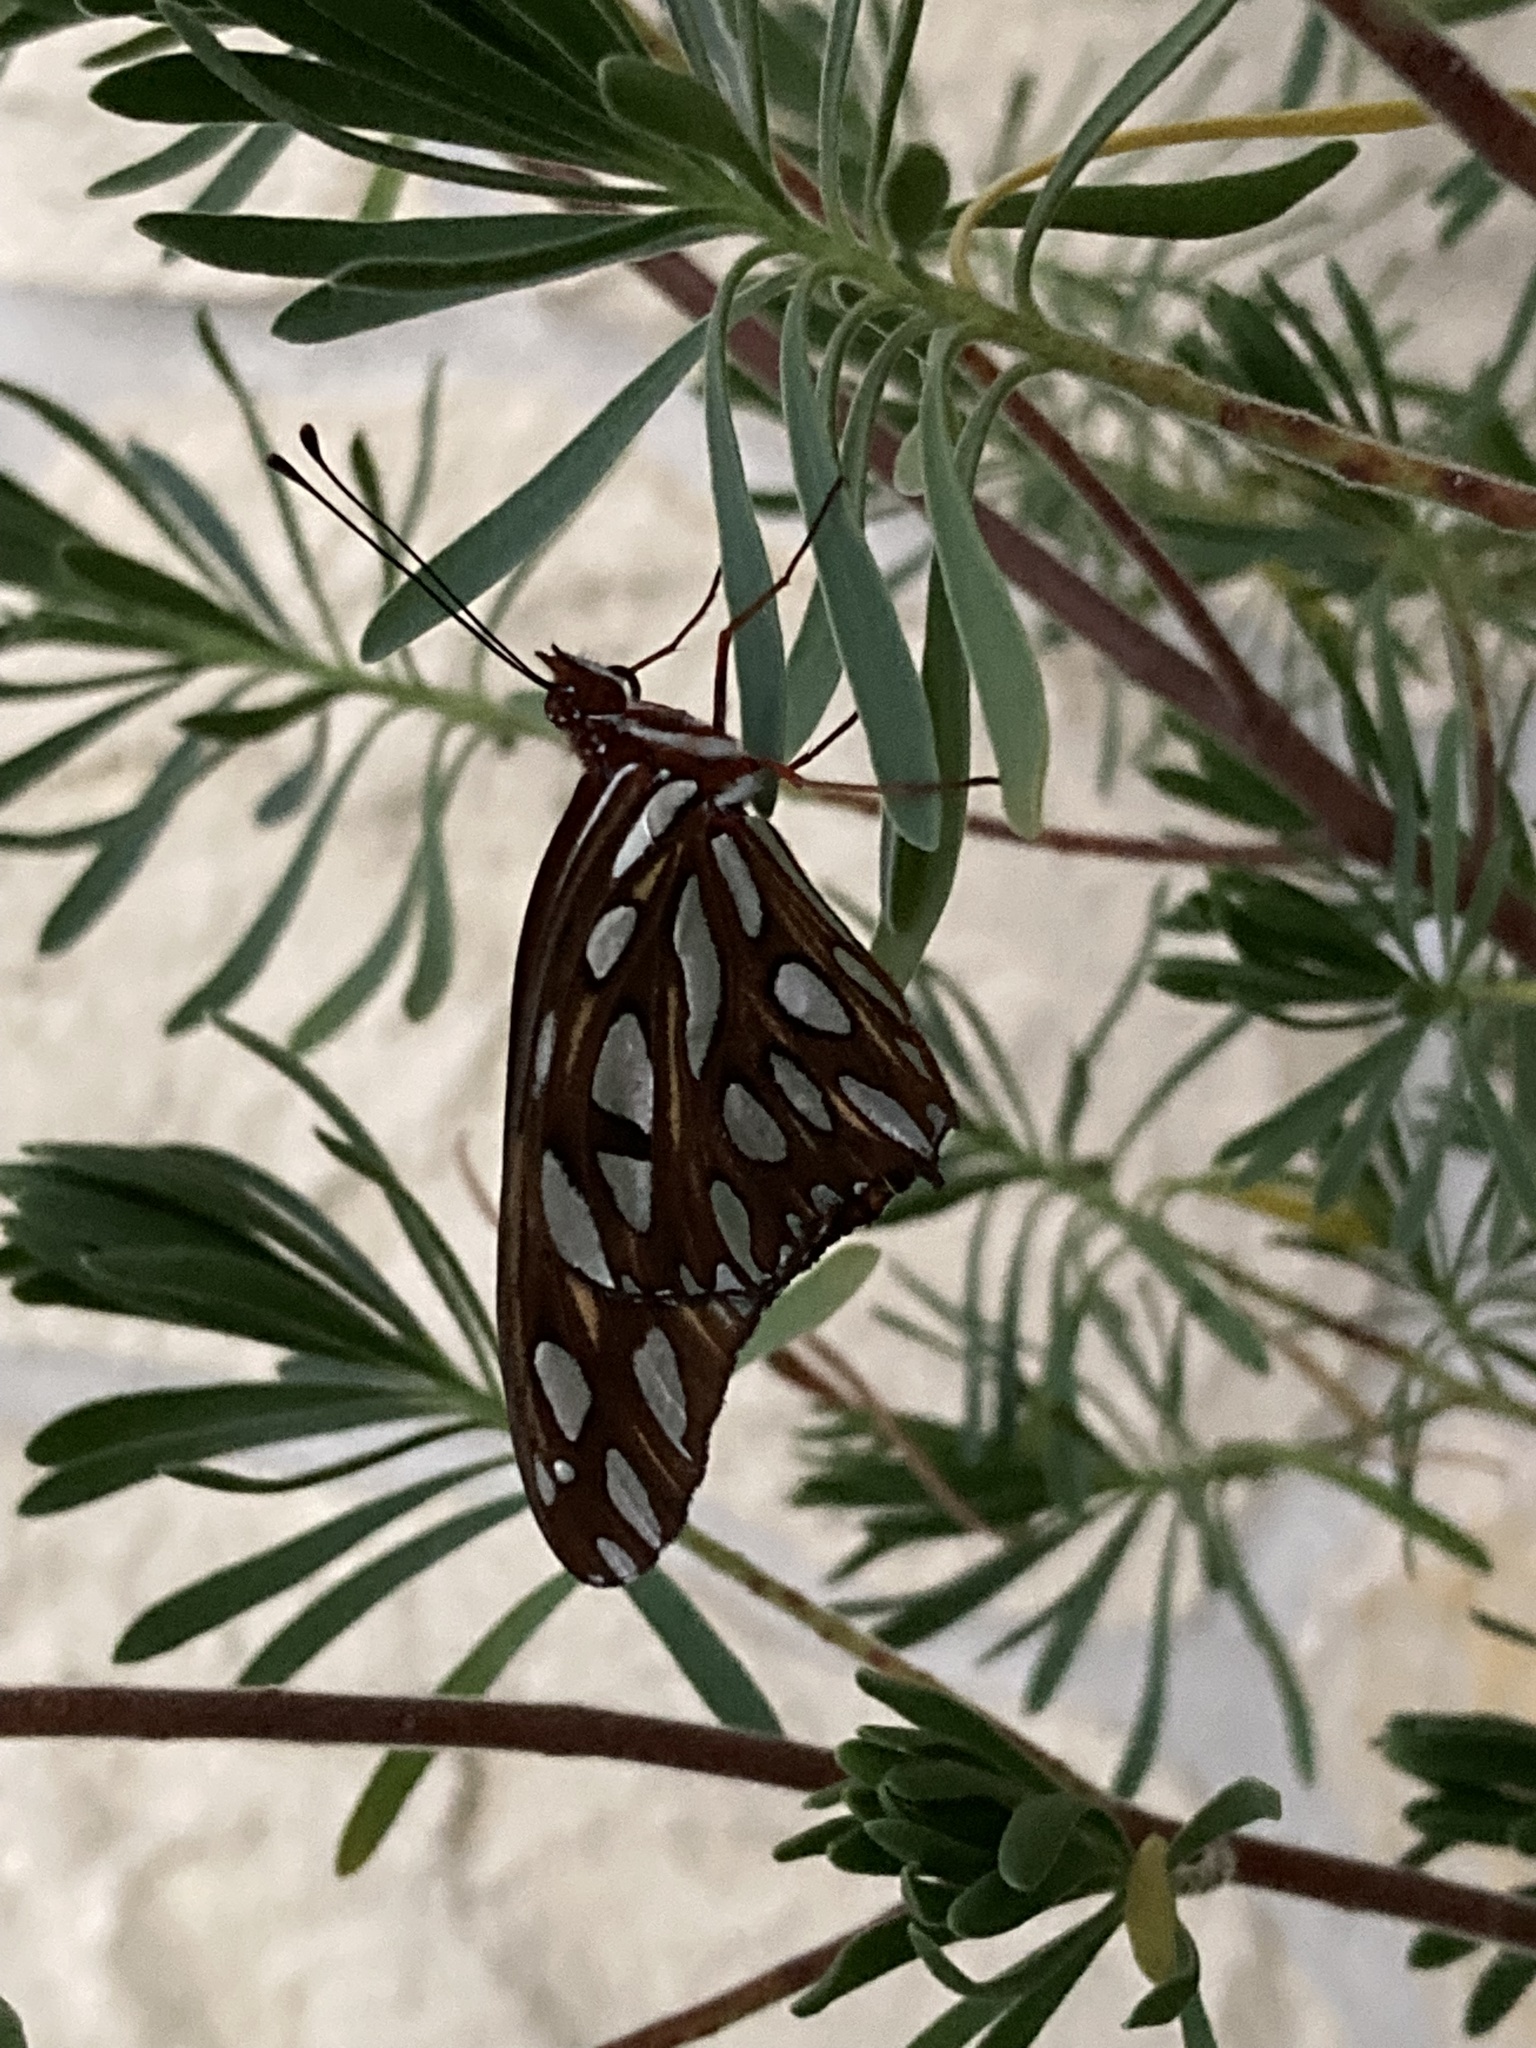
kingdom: Animalia
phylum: Arthropoda
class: Insecta
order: Lepidoptera
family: Nymphalidae
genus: Dione
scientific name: Dione vanillae
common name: Gulf fritillary
